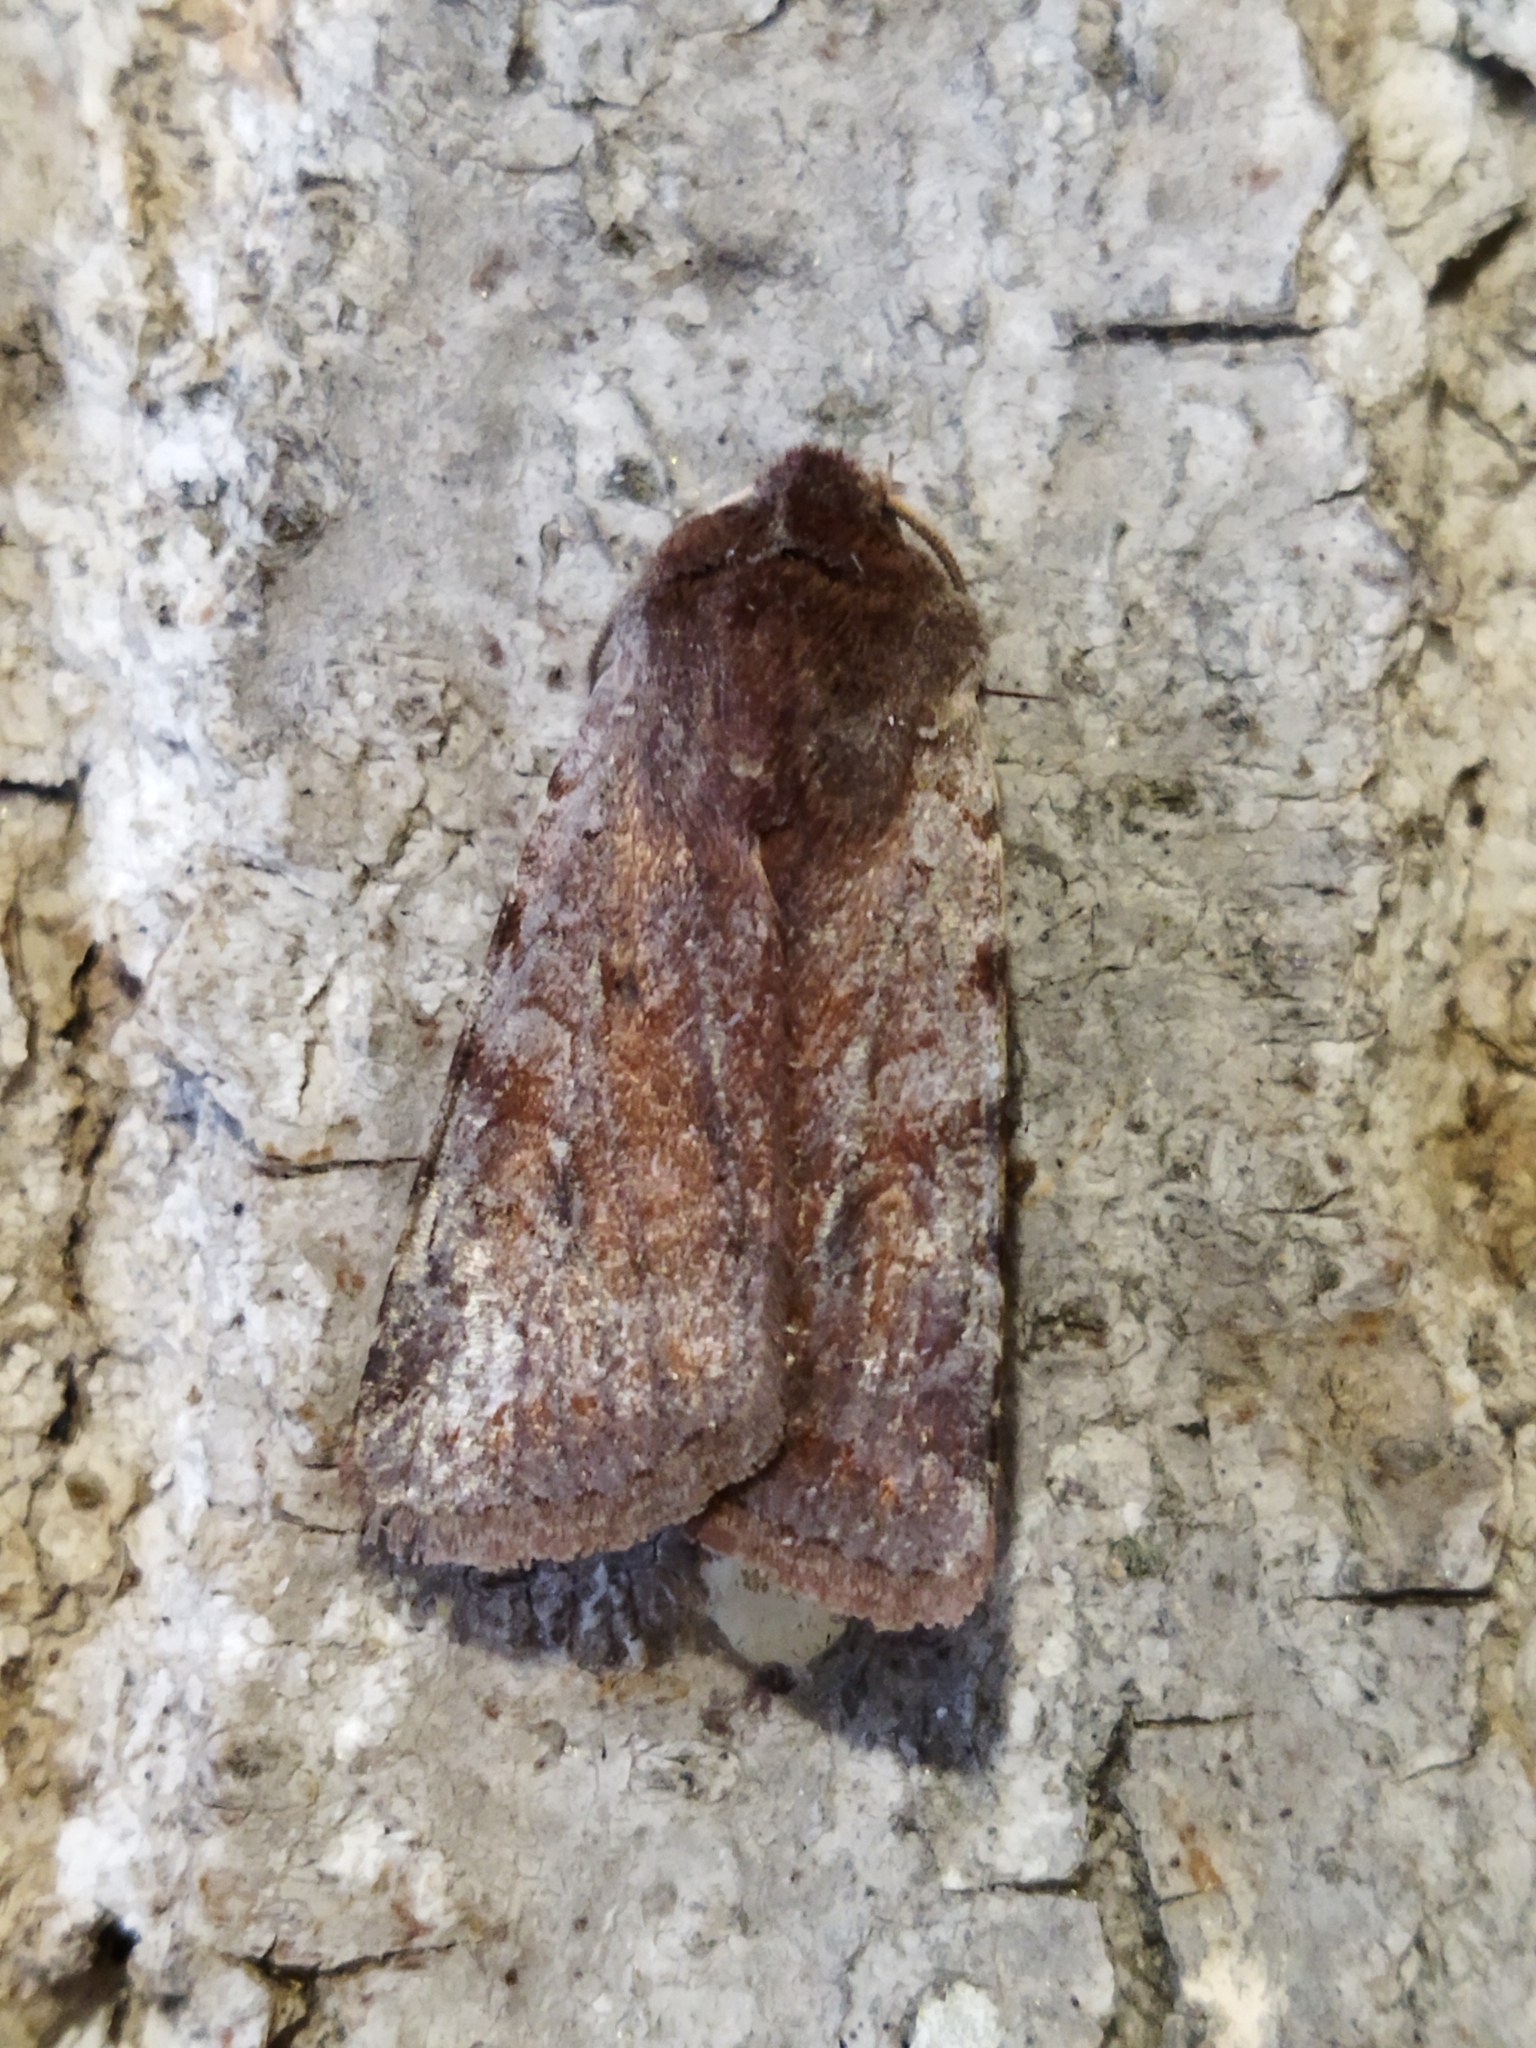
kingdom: Animalia
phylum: Arthropoda
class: Insecta
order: Lepidoptera
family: Noctuidae
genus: Cerastis
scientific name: Cerastis rubricosa
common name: Red chestnut
